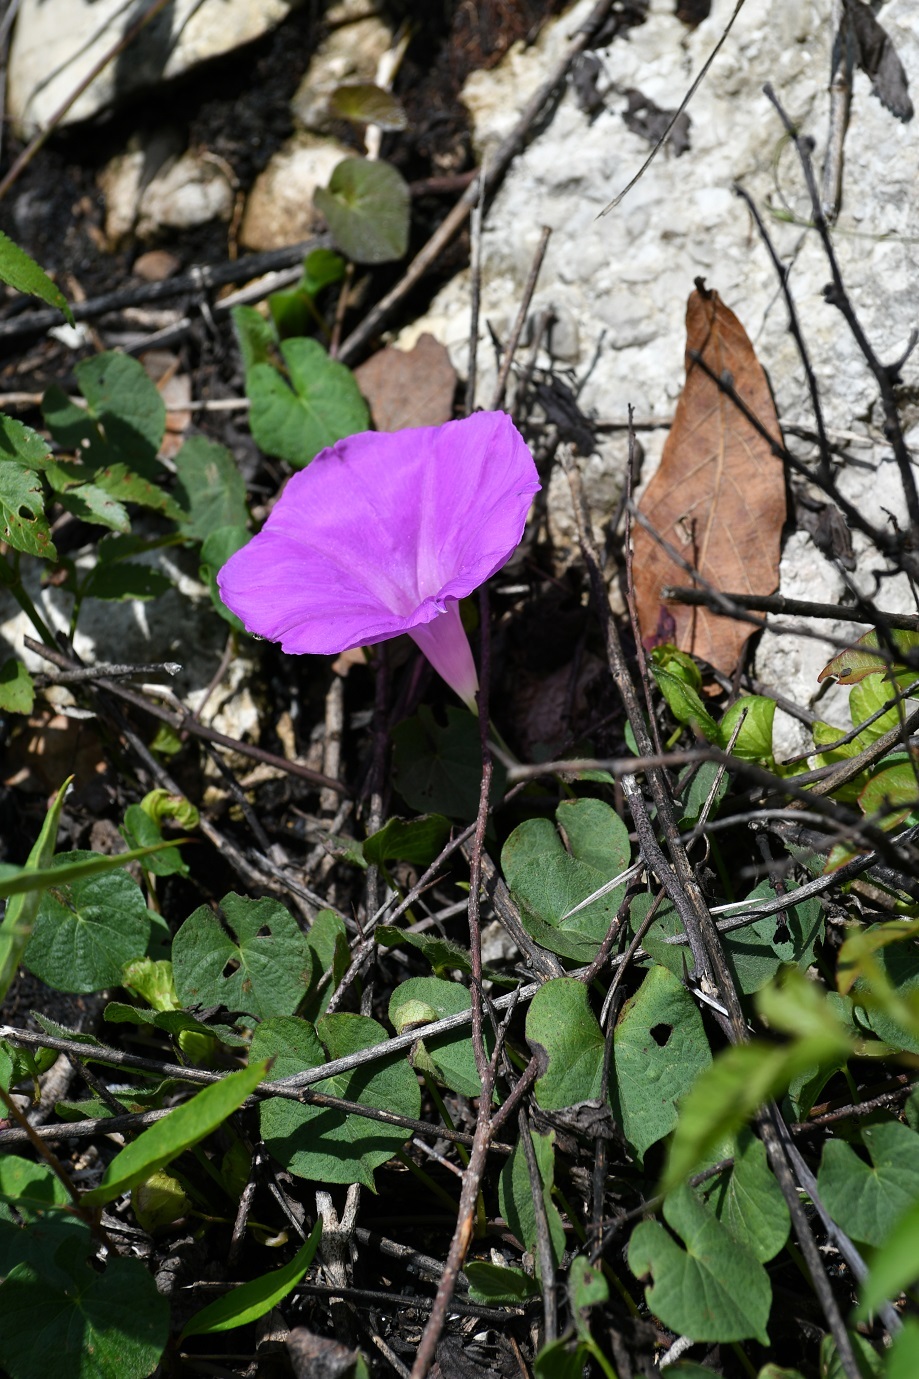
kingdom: Plantae
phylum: Tracheophyta
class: Magnoliopsida
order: Solanales
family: Convolvulaceae
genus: Ipomoea
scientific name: Ipomoea suffulta
